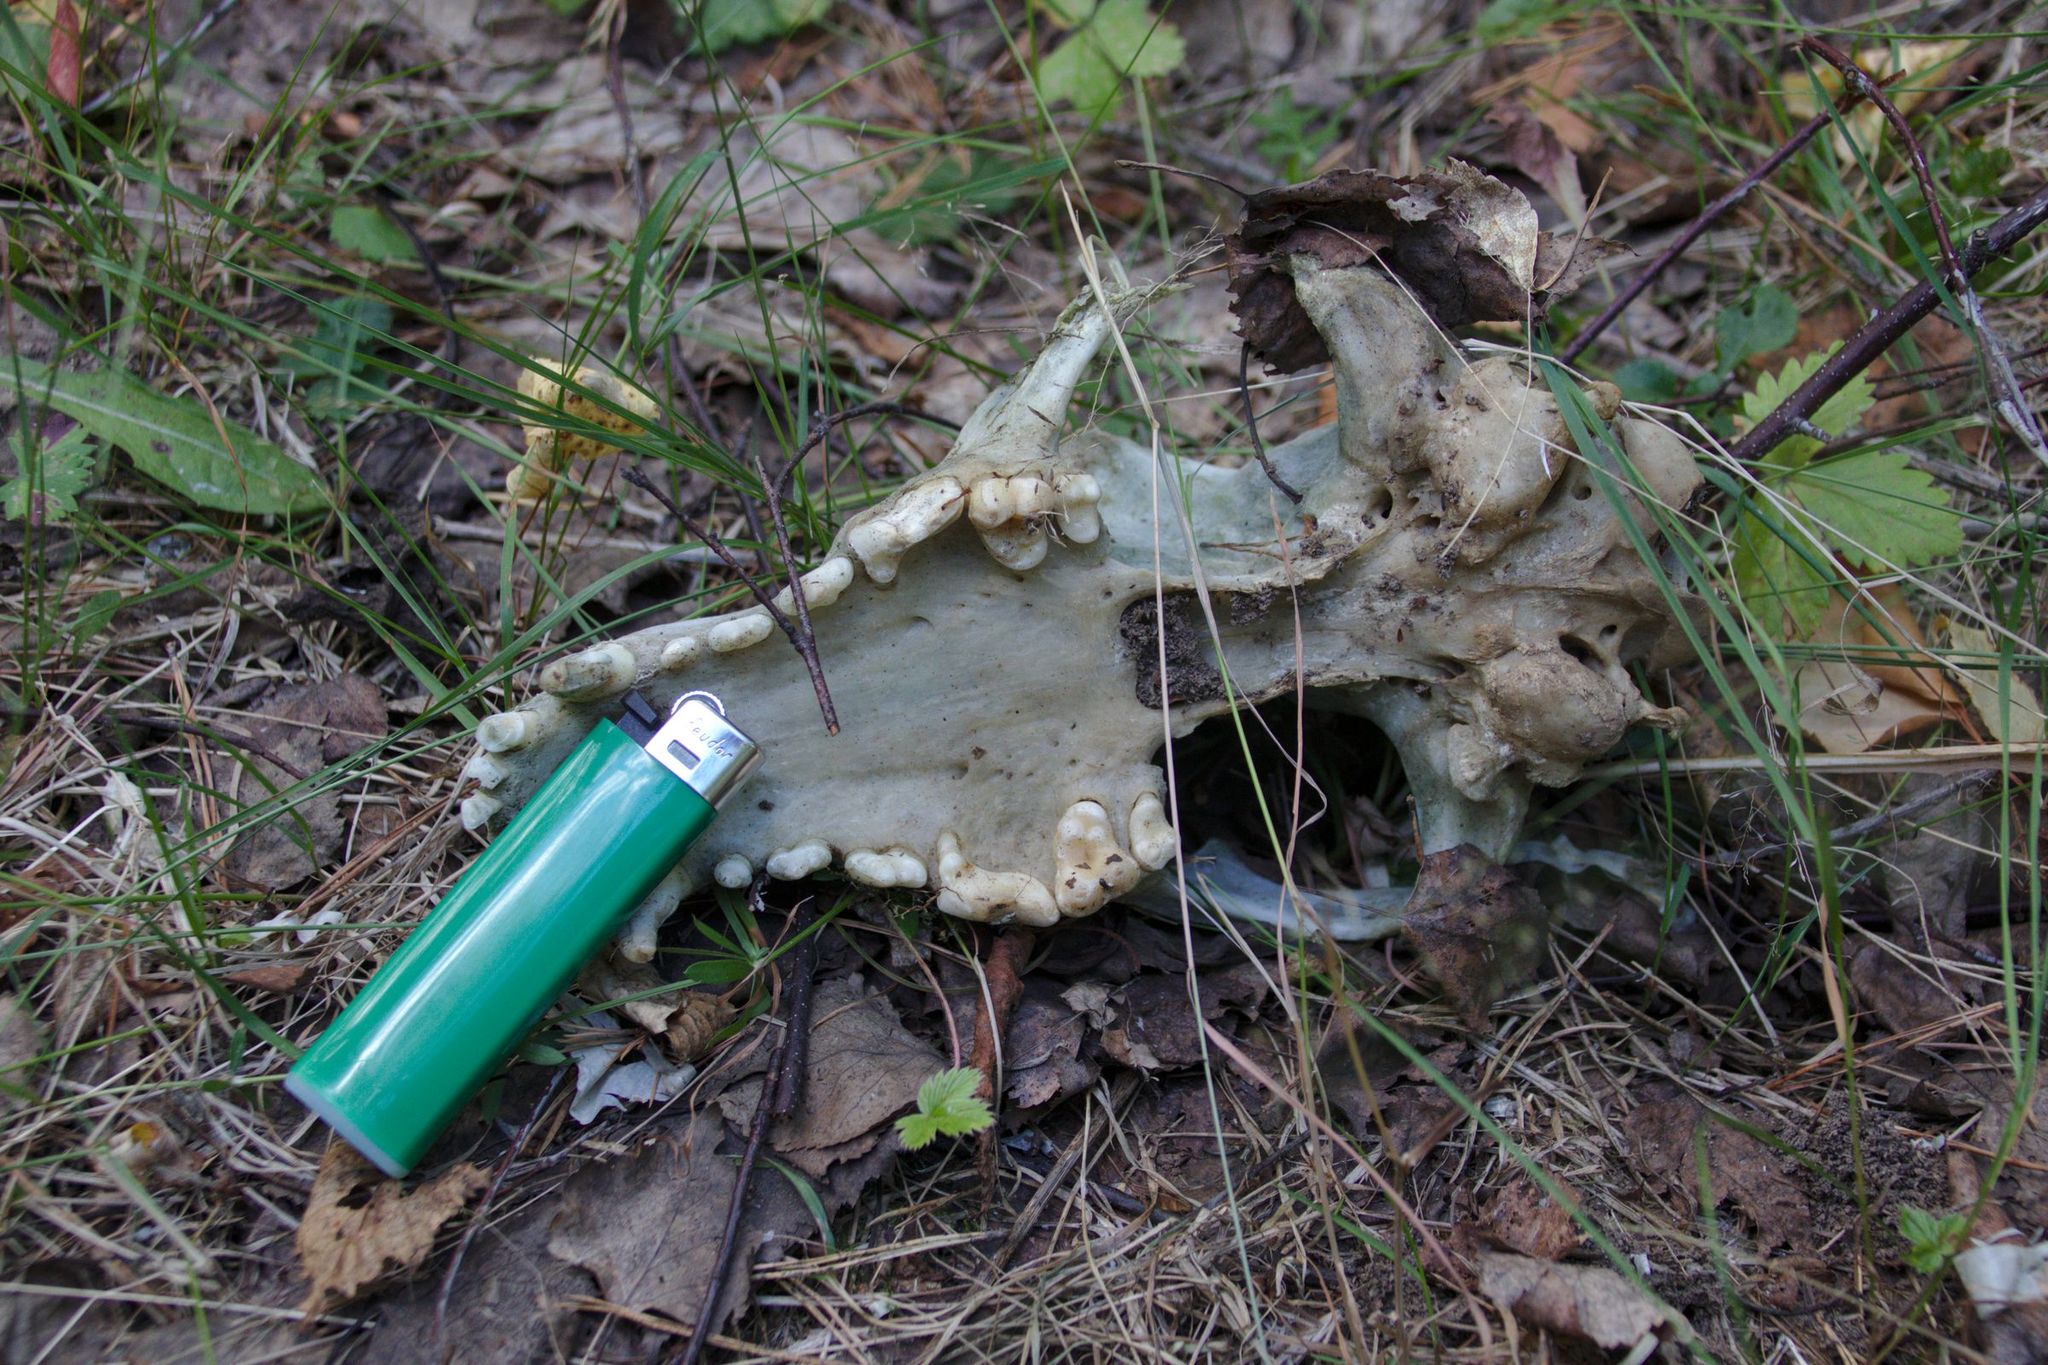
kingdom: Animalia
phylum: Chordata
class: Mammalia
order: Carnivora
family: Canidae
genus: Canis
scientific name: Canis lupus
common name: Gray wolf
